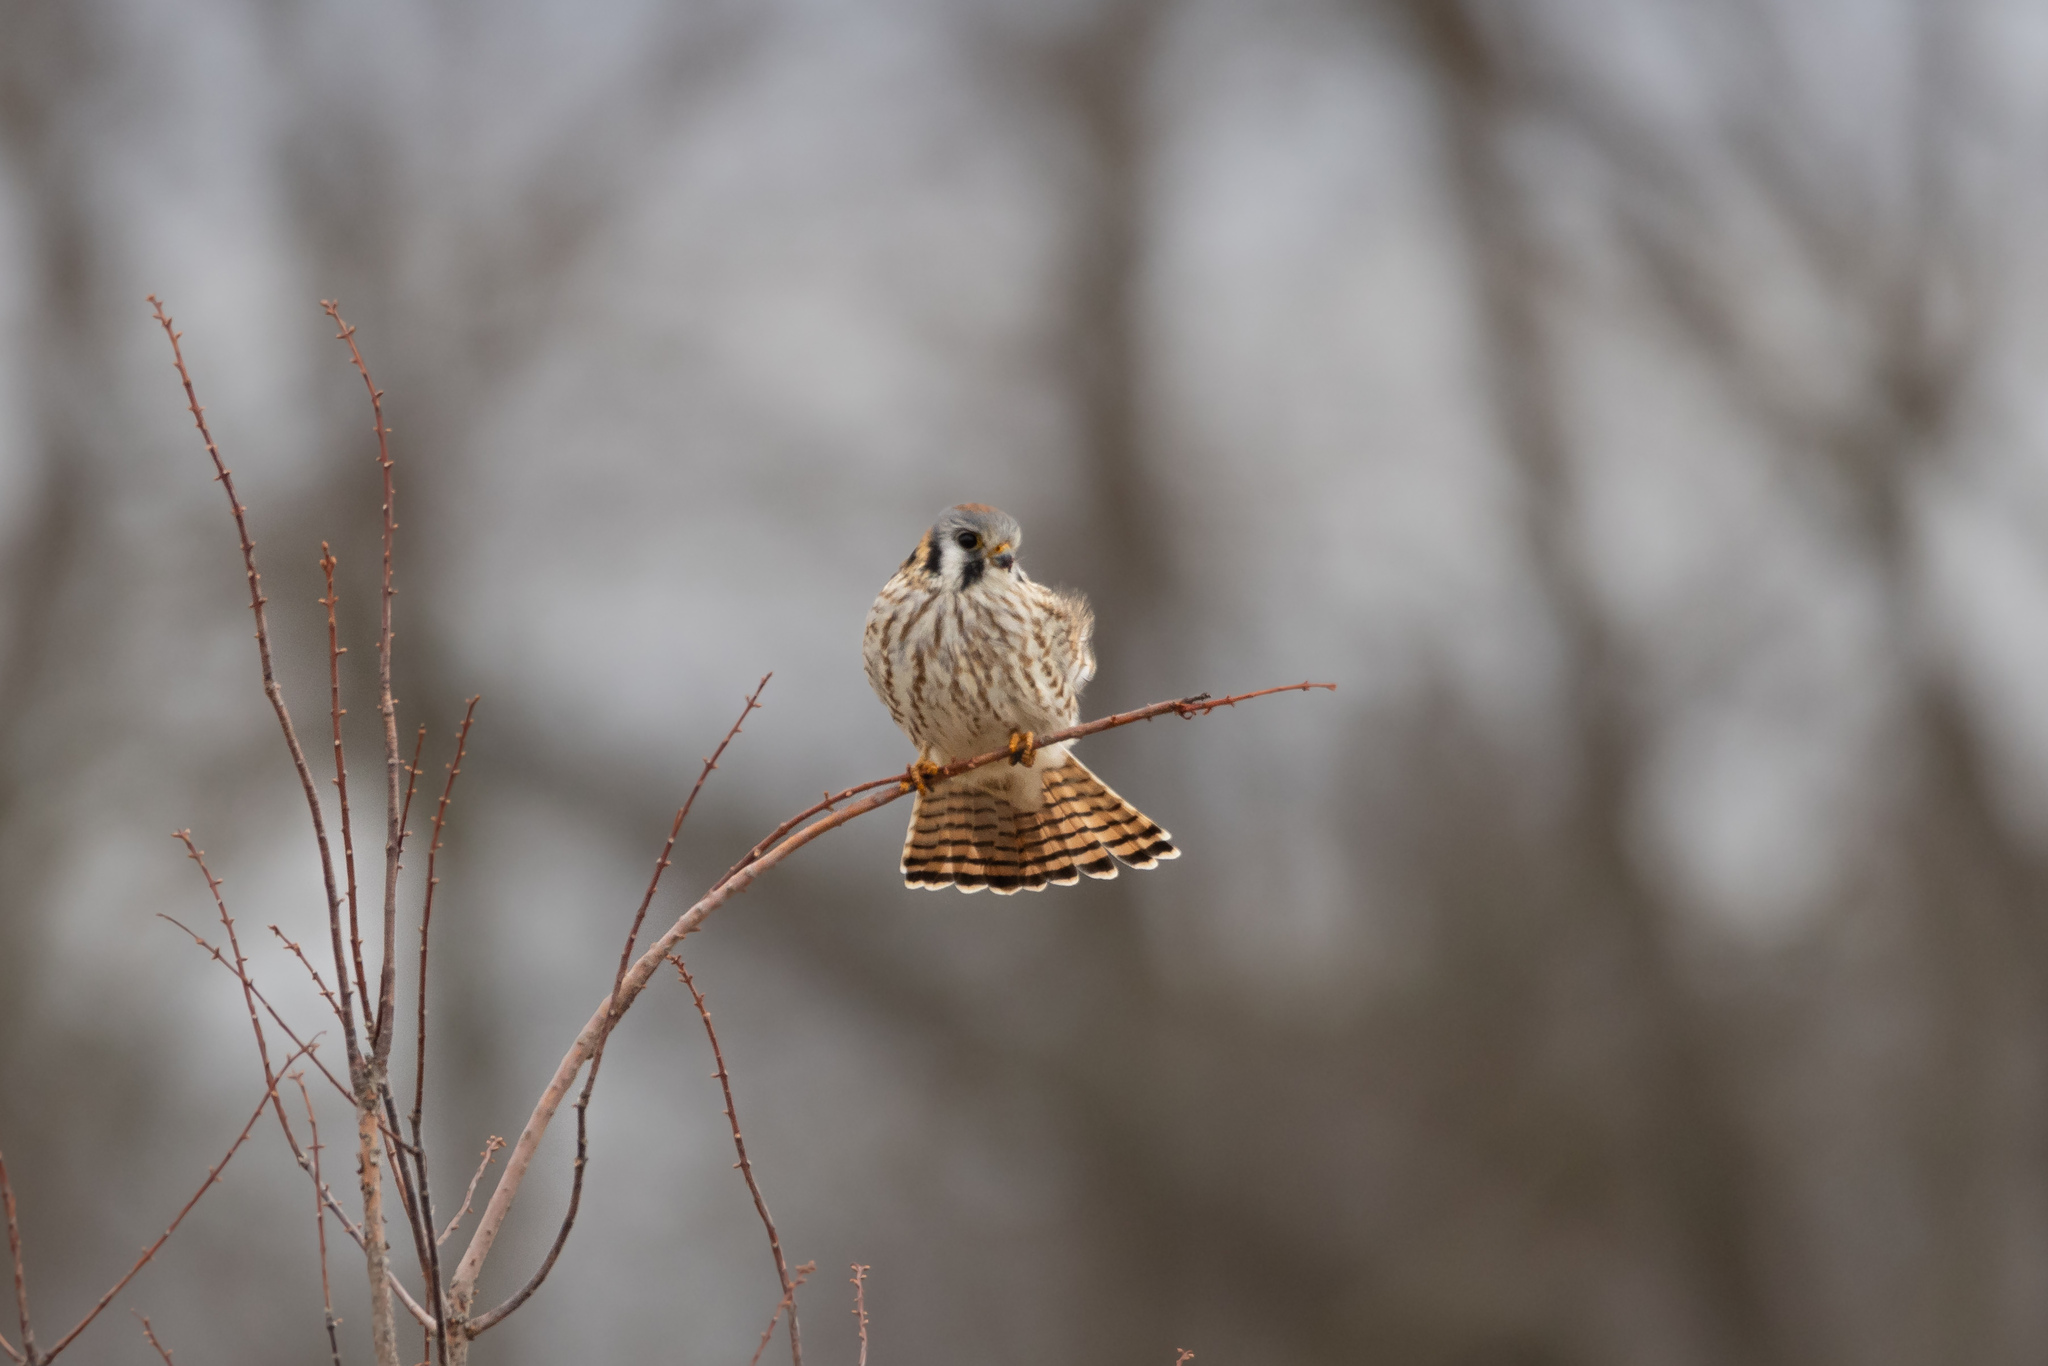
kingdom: Animalia
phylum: Chordata
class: Aves
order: Falconiformes
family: Falconidae
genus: Falco
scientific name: Falco sparverius
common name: American kestrel
